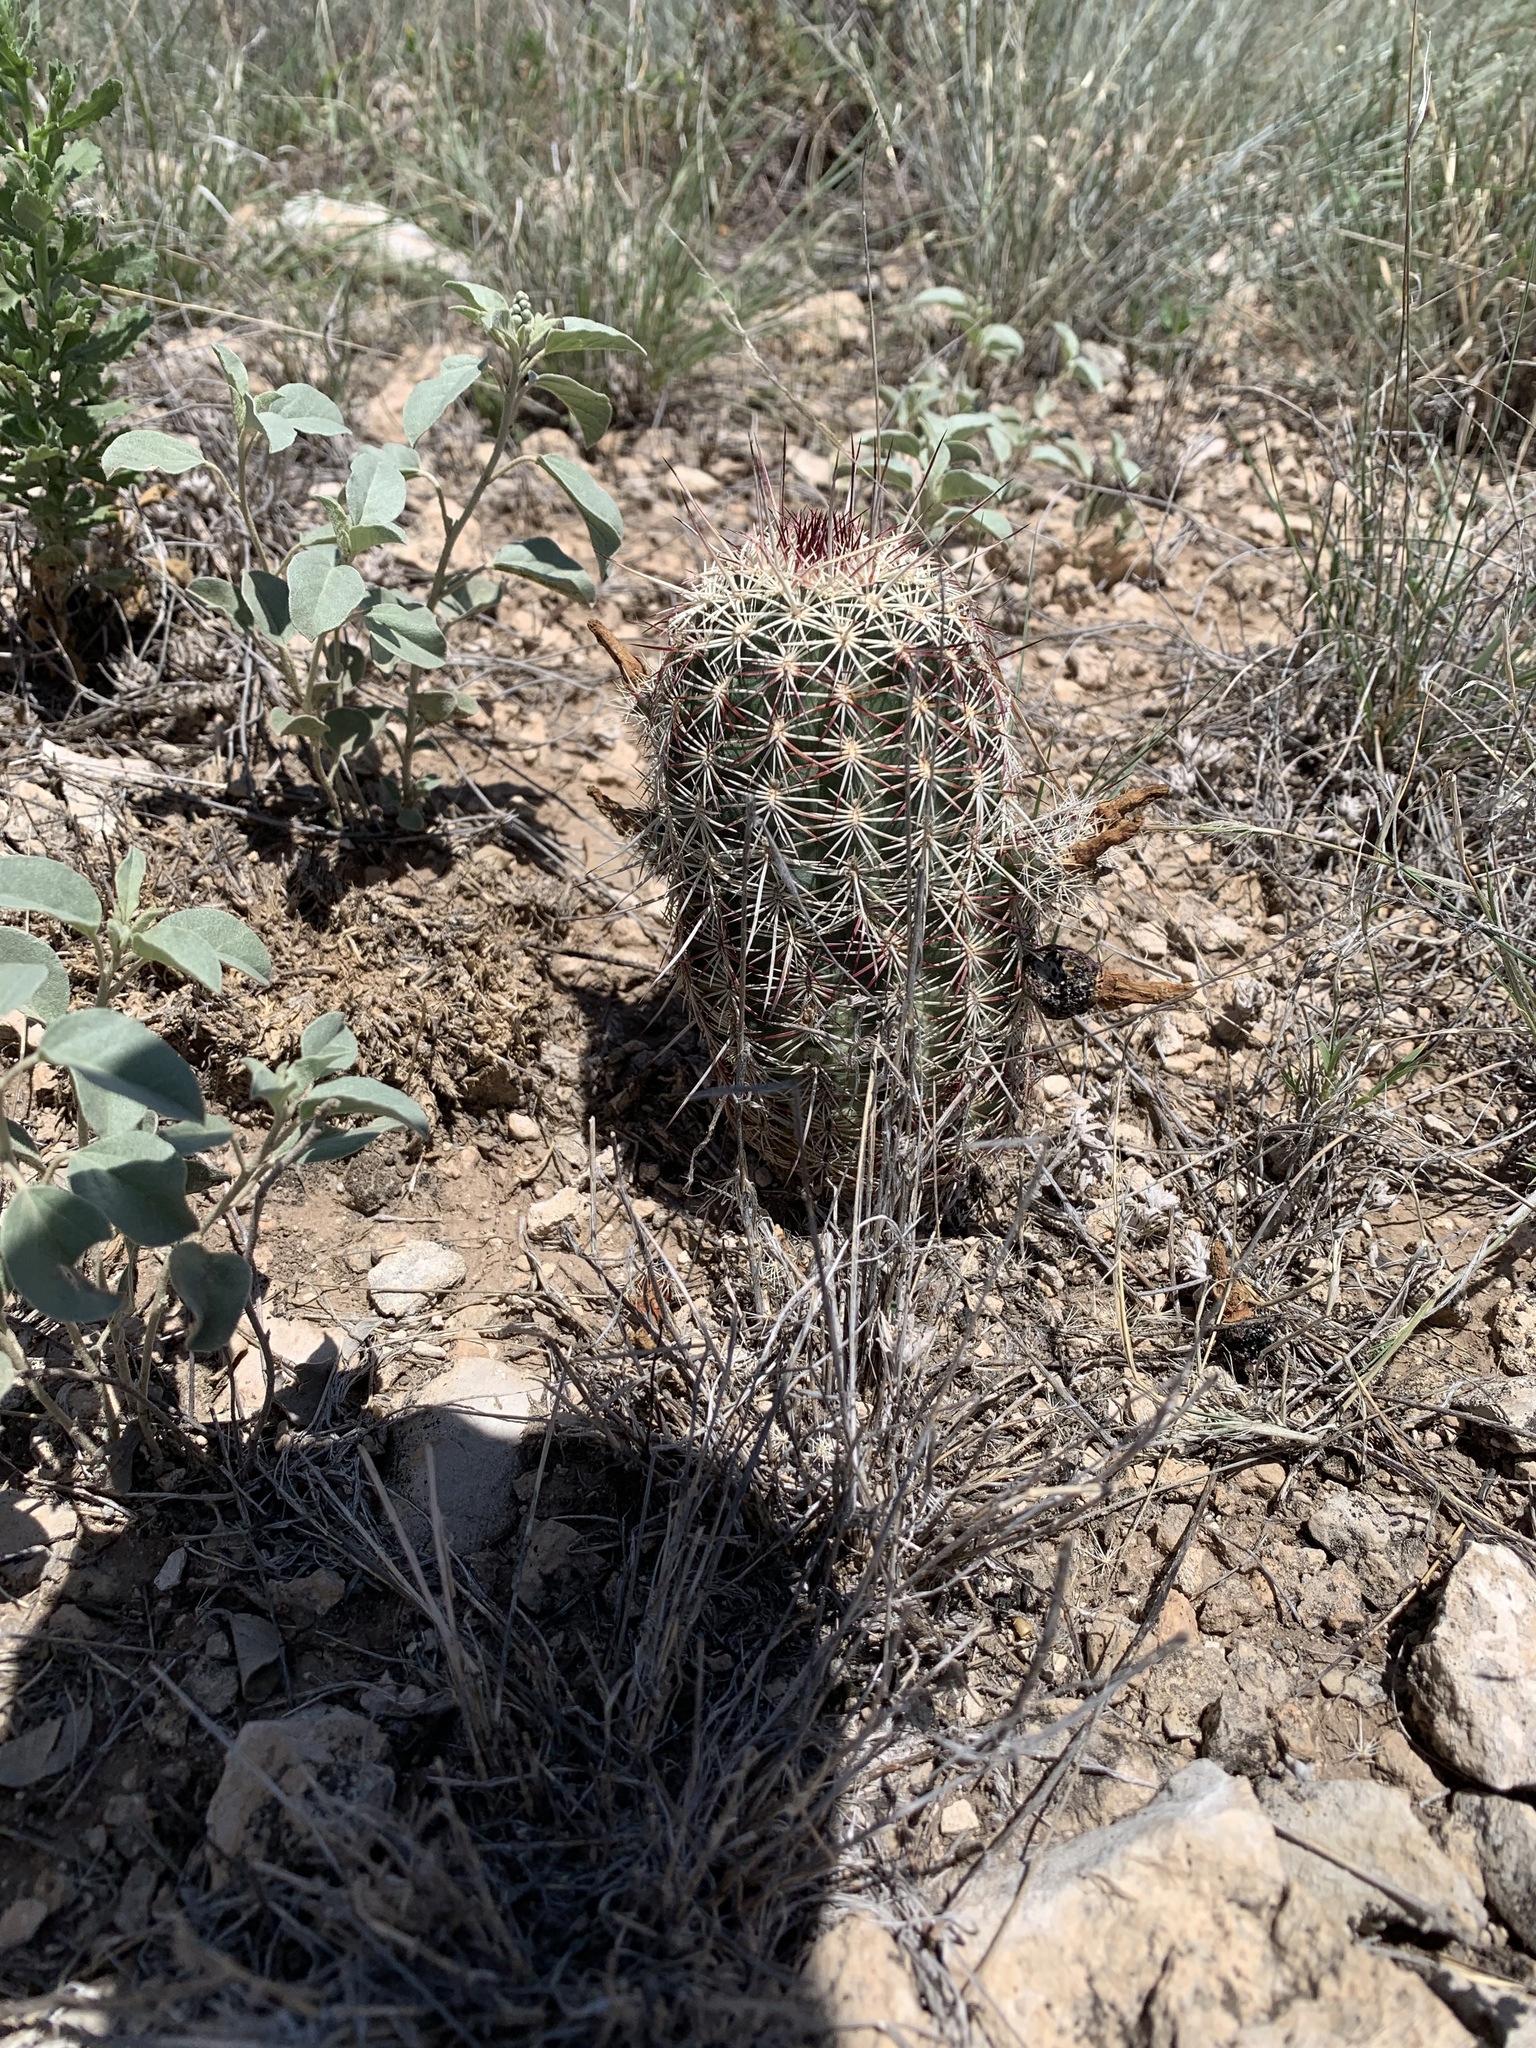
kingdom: Plantae
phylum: Tracheophyta
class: Magnoliopsida
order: Caryophyllales
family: Cactaceae
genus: Echinocereus
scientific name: Echinocereus viridiflorus
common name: Nylon hedgehog cactus
